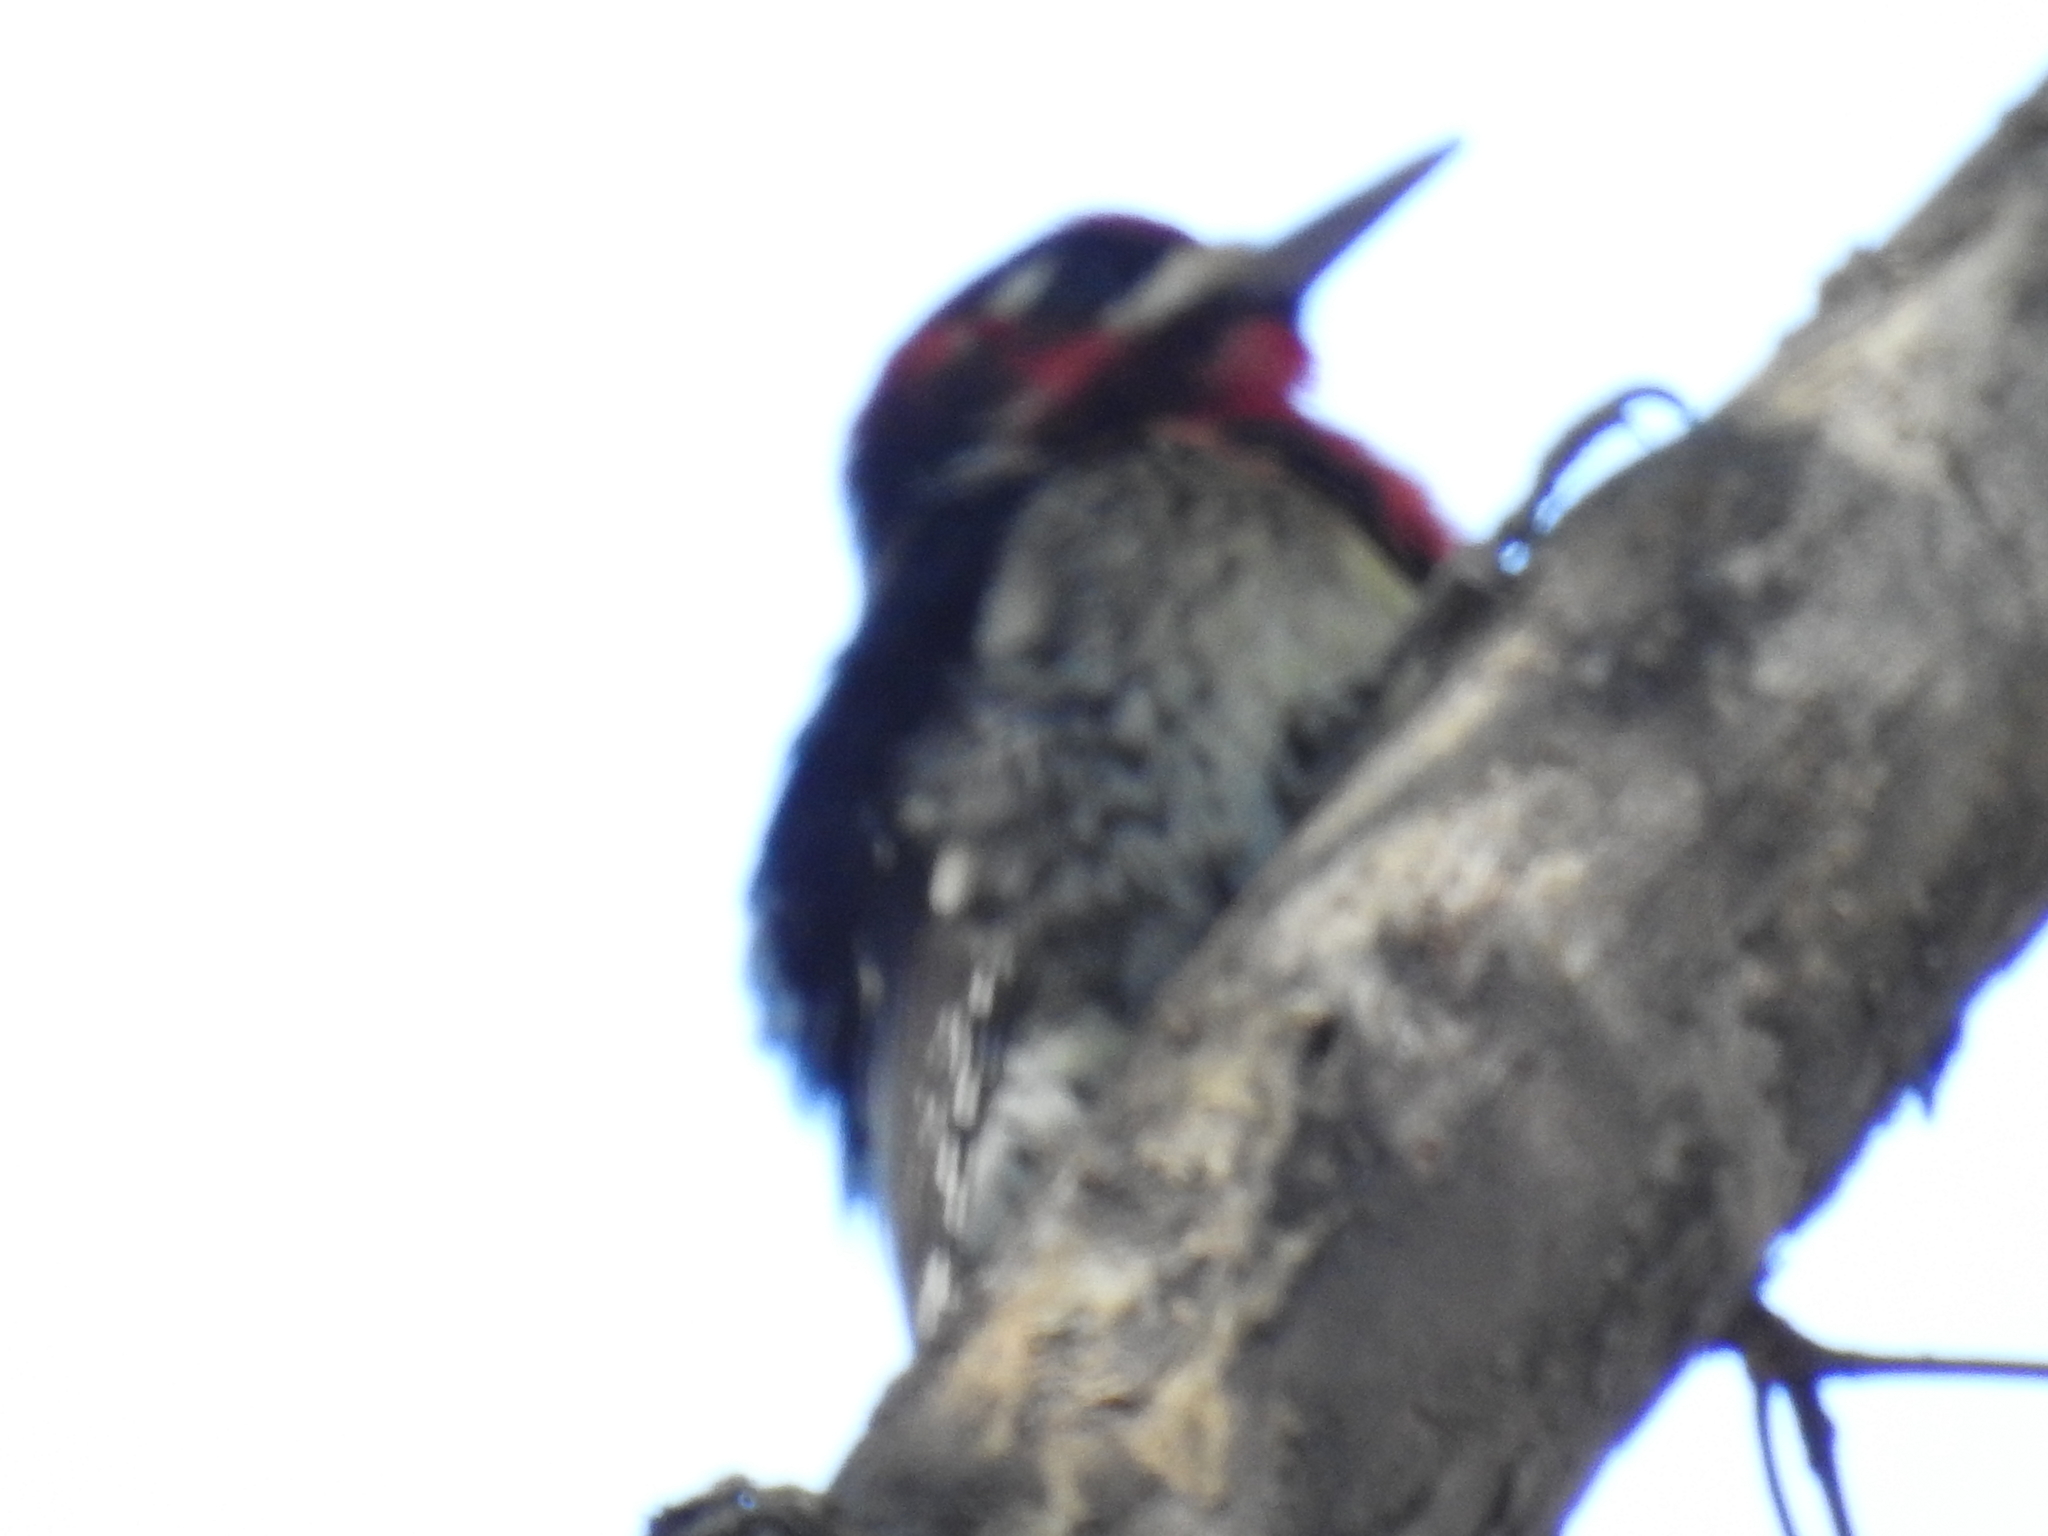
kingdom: Animalia
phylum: Chordata
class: Aves
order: Piciformes
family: Picidae
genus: Sphyrapicus
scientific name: Sphyrapicus
